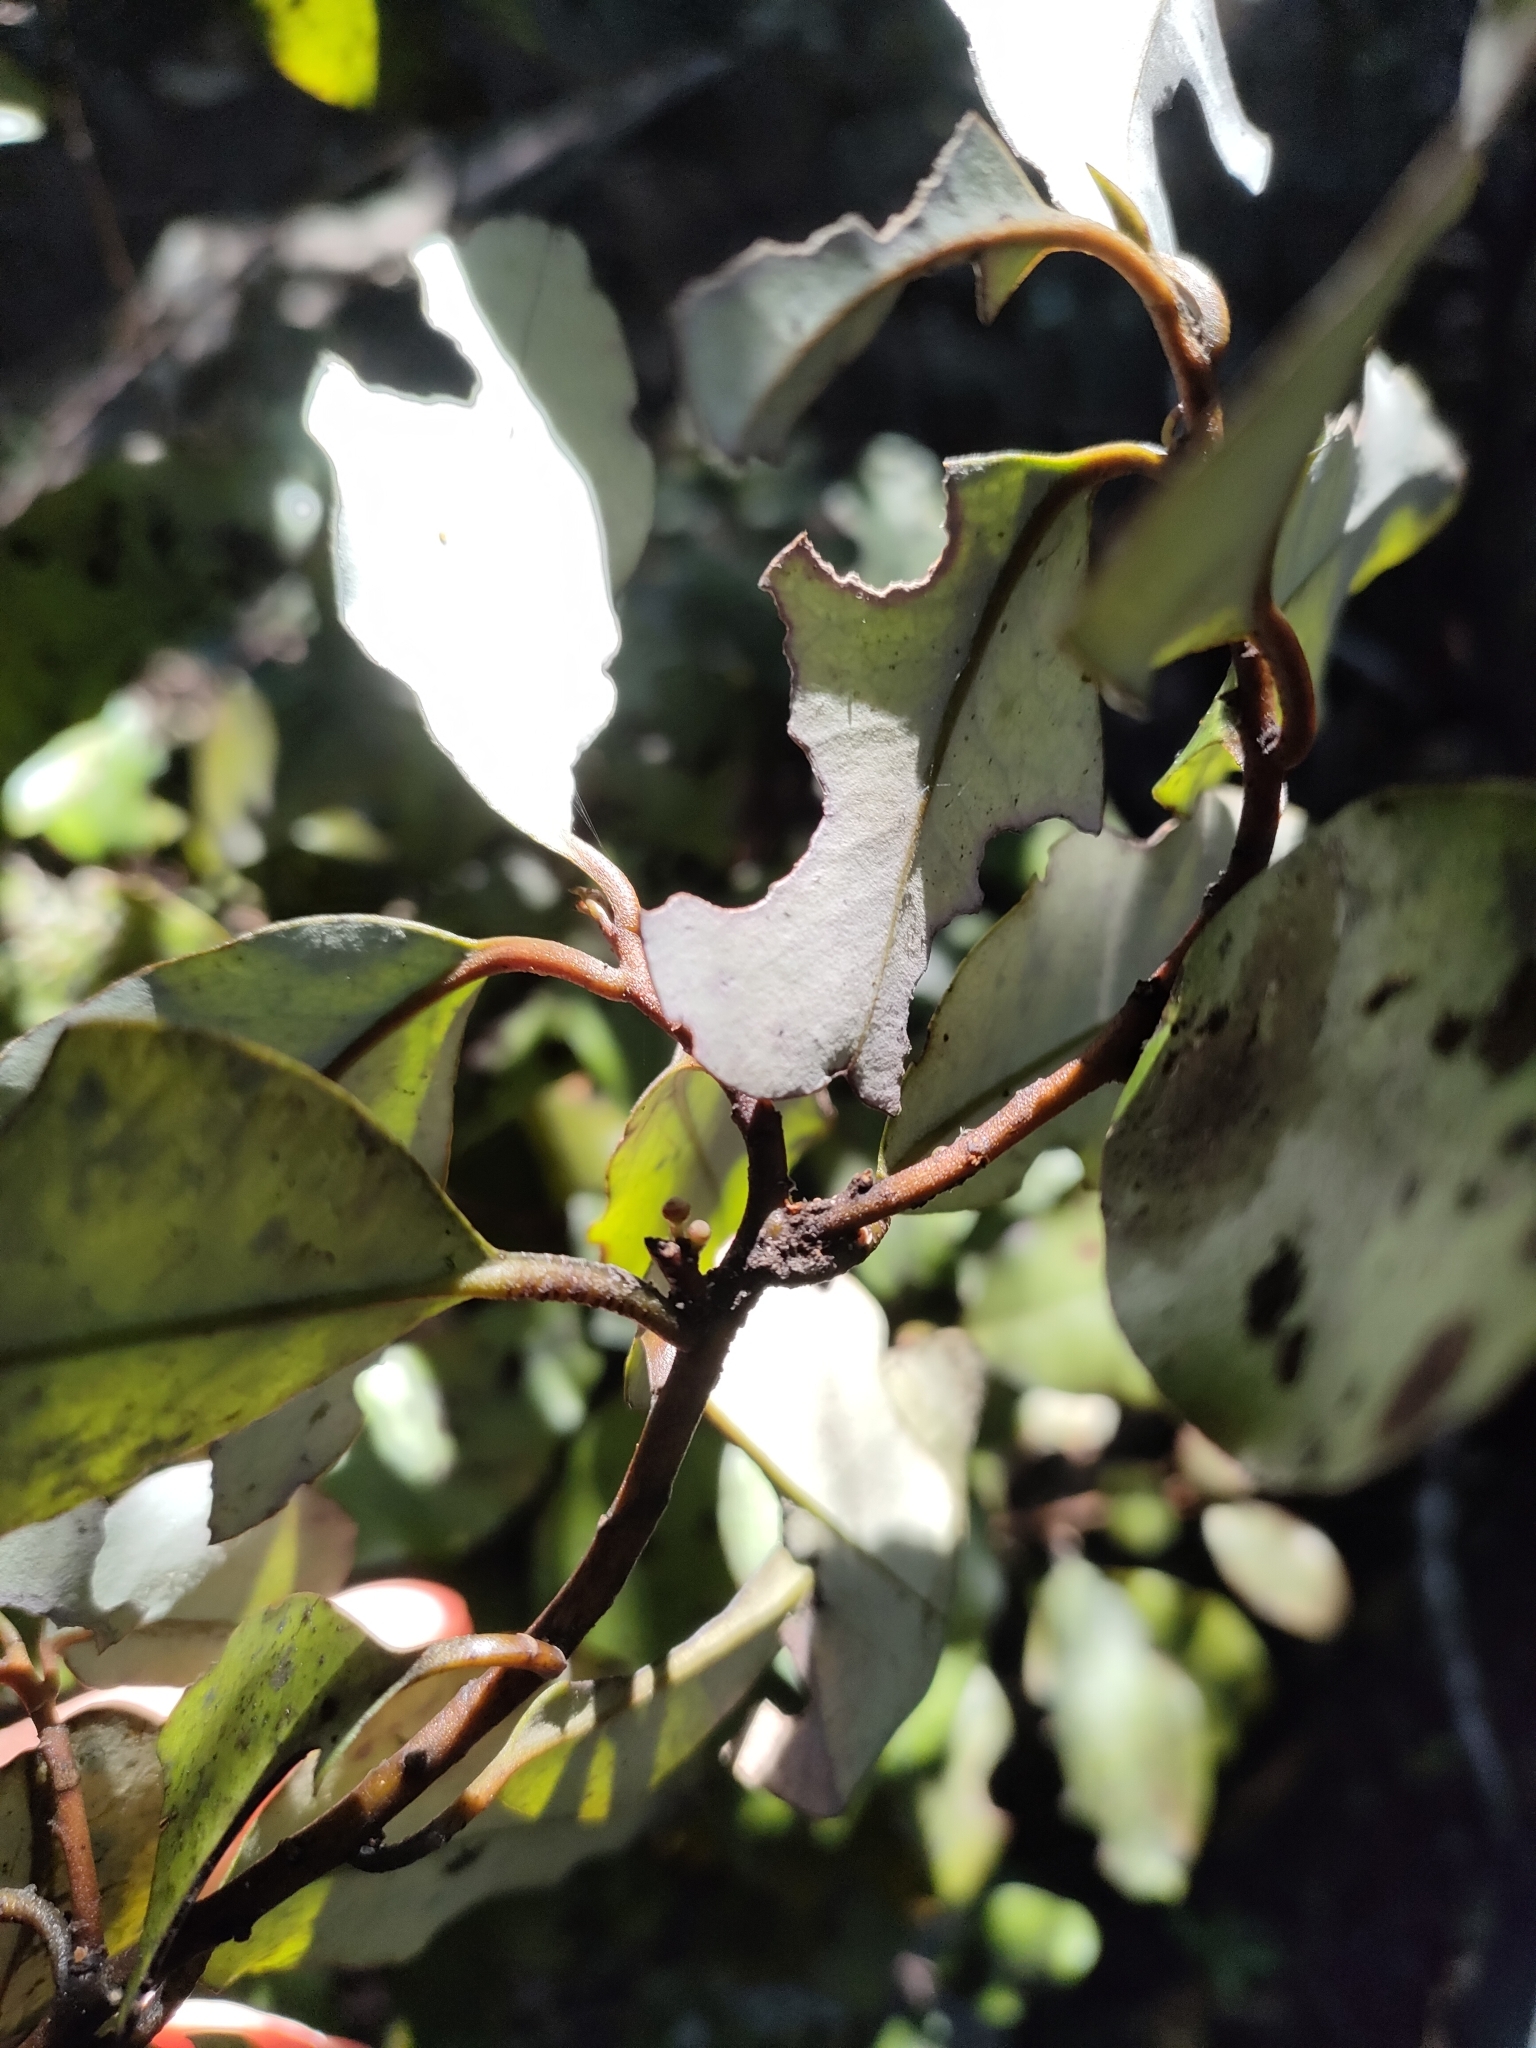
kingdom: Plantae
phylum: Tracheophyta
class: Magnoliopsida
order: Canellales
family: Winteraceae
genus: Pseudowintera
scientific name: Pseudowintera colorata
